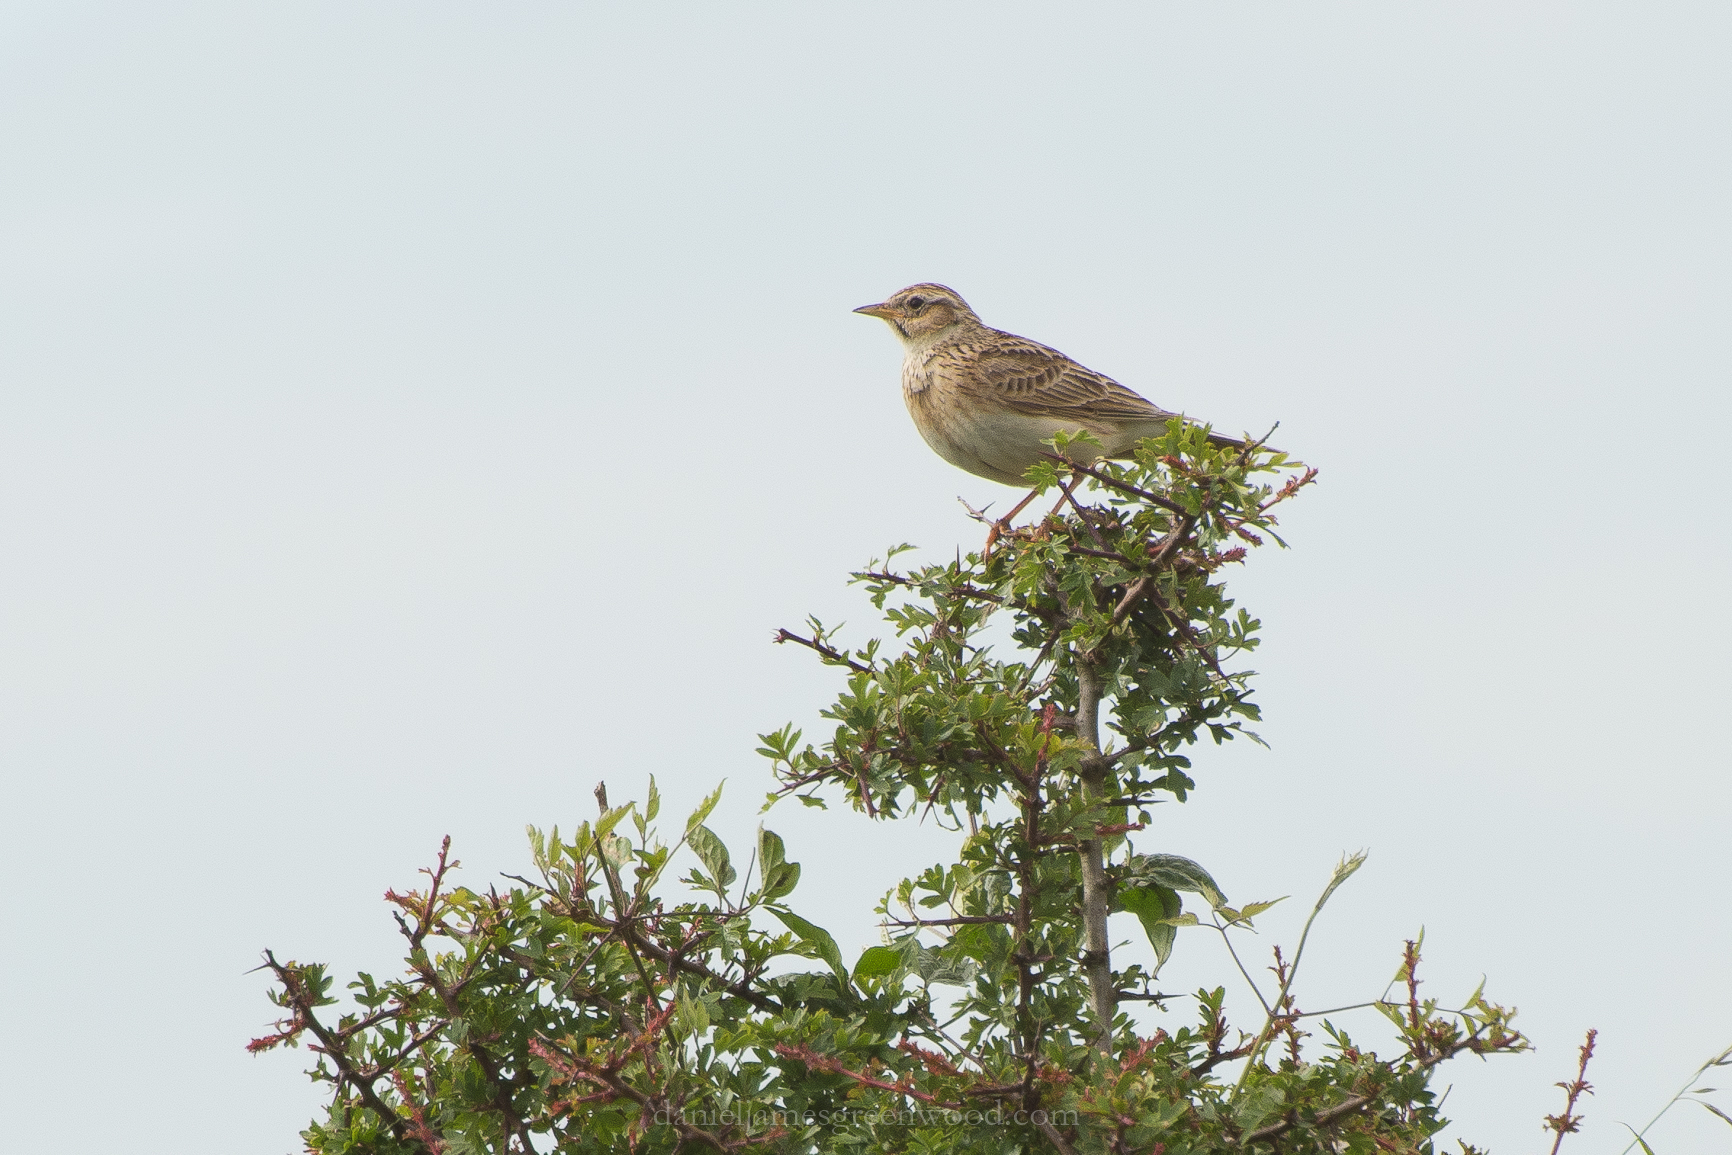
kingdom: Animalia
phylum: Chordata
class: Aves
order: Passeriformes
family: Alaudidae
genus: Alauda
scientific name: Alauda arvensis
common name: Eurasian skylark
